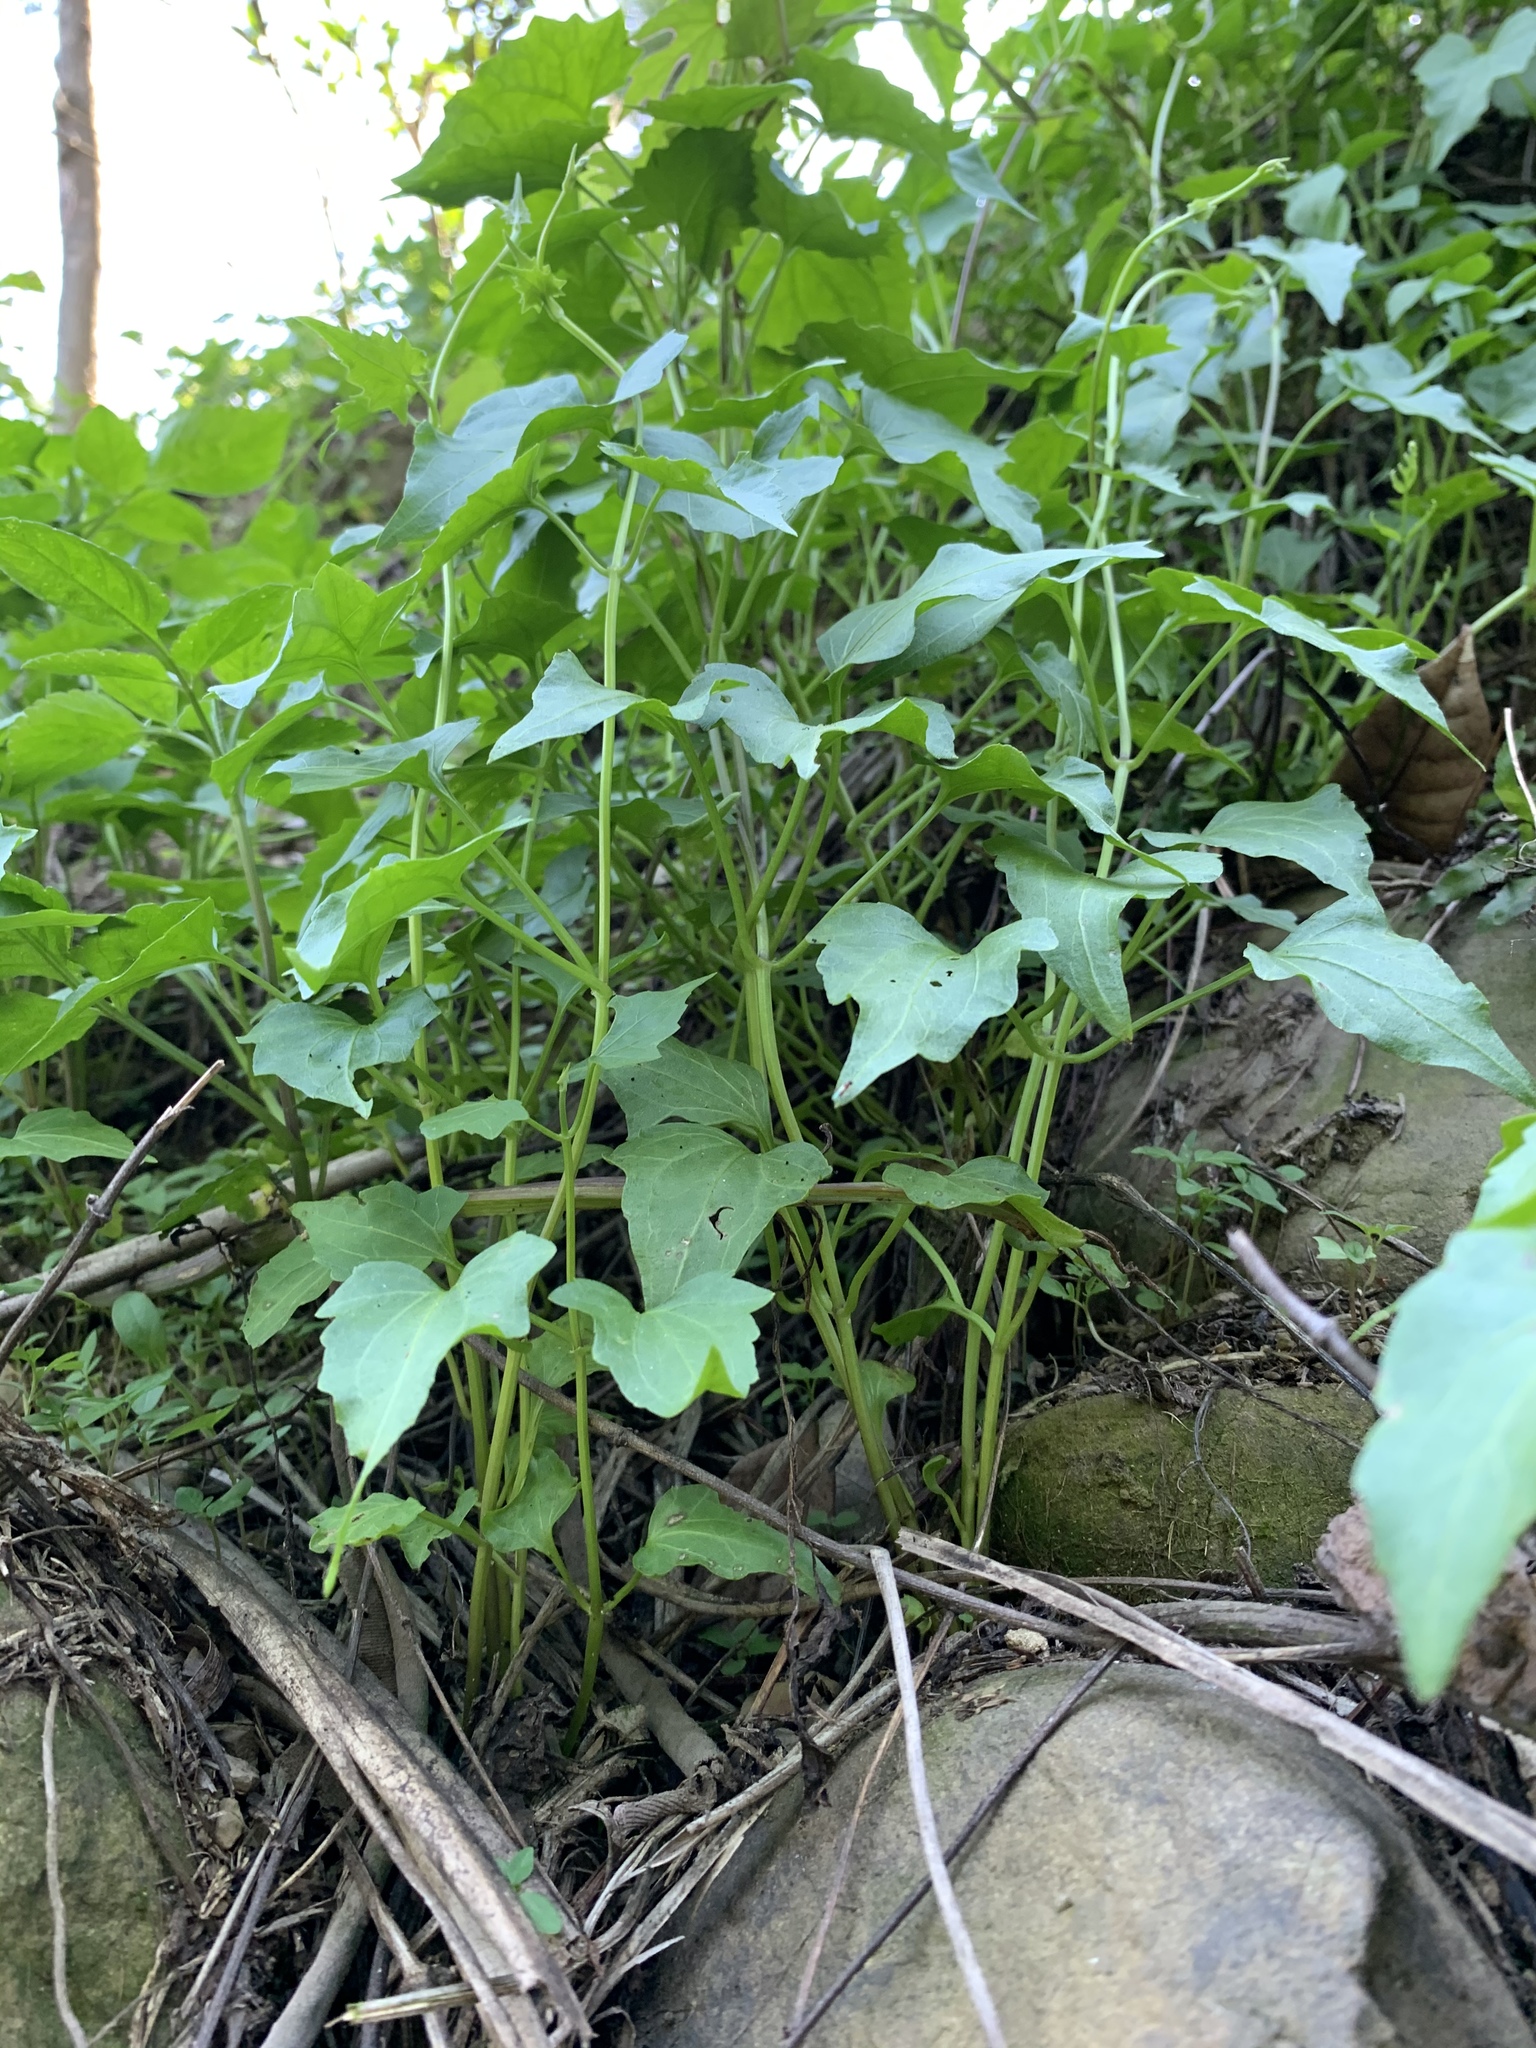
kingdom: Plantae
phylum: Tracheophyta
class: Magnoliopsida
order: Asterales
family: Asteraceae
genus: Mikania
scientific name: Mikania micrantha
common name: Mile-a-minute
